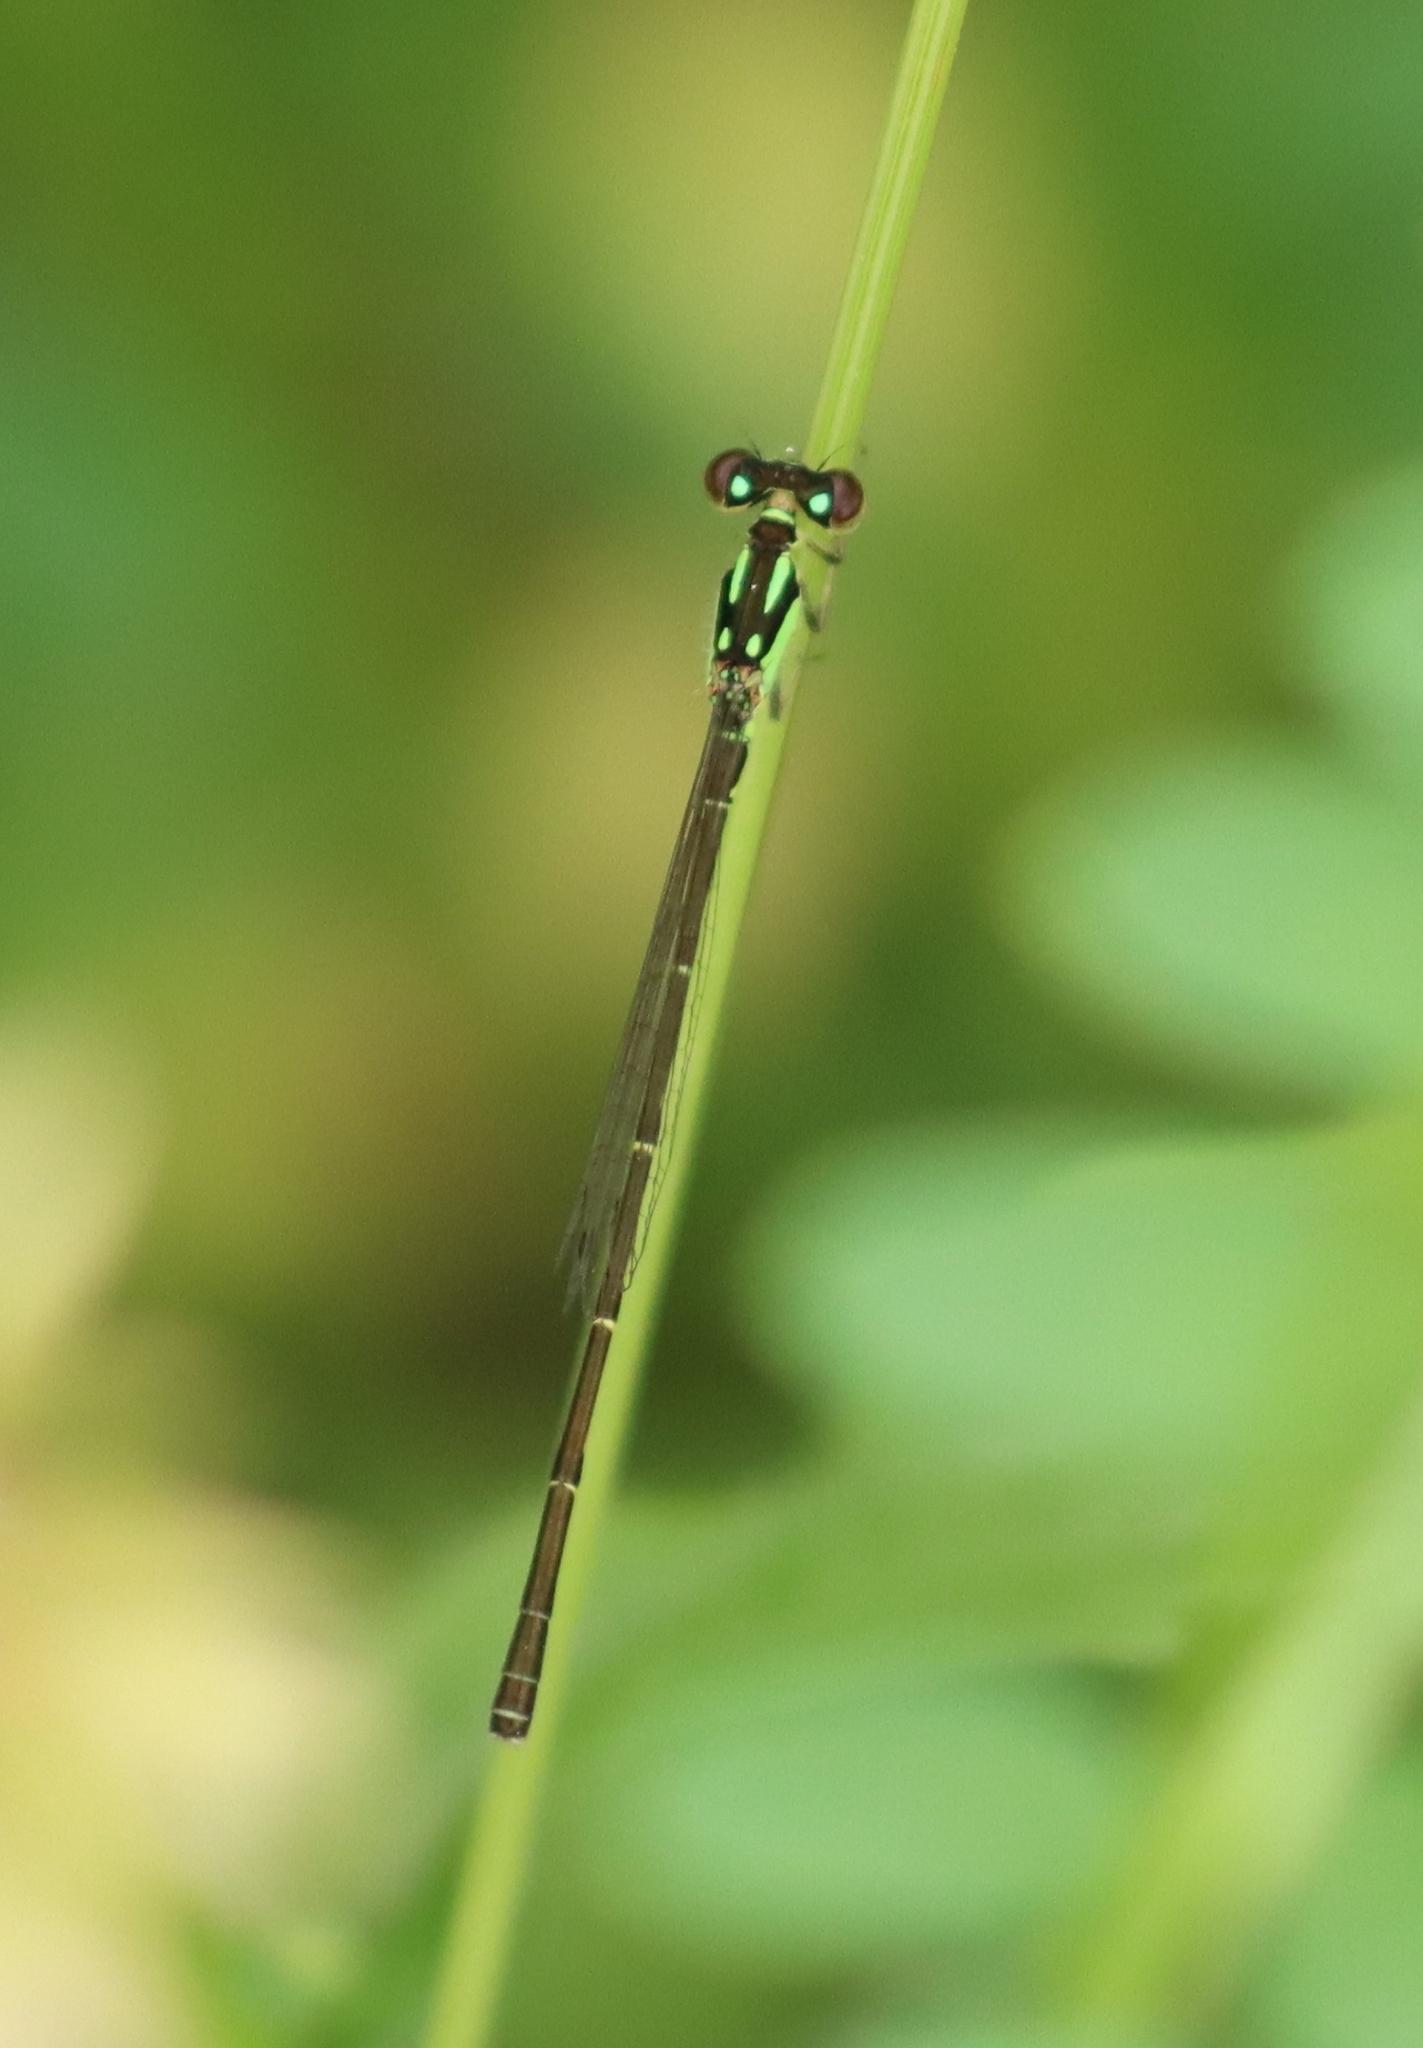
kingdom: Animalia
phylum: Arthropoda
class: Insecta
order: Odonata
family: Coenagrionidae
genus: Ischnura
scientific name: Ischnura posita
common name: Fragile forktail
